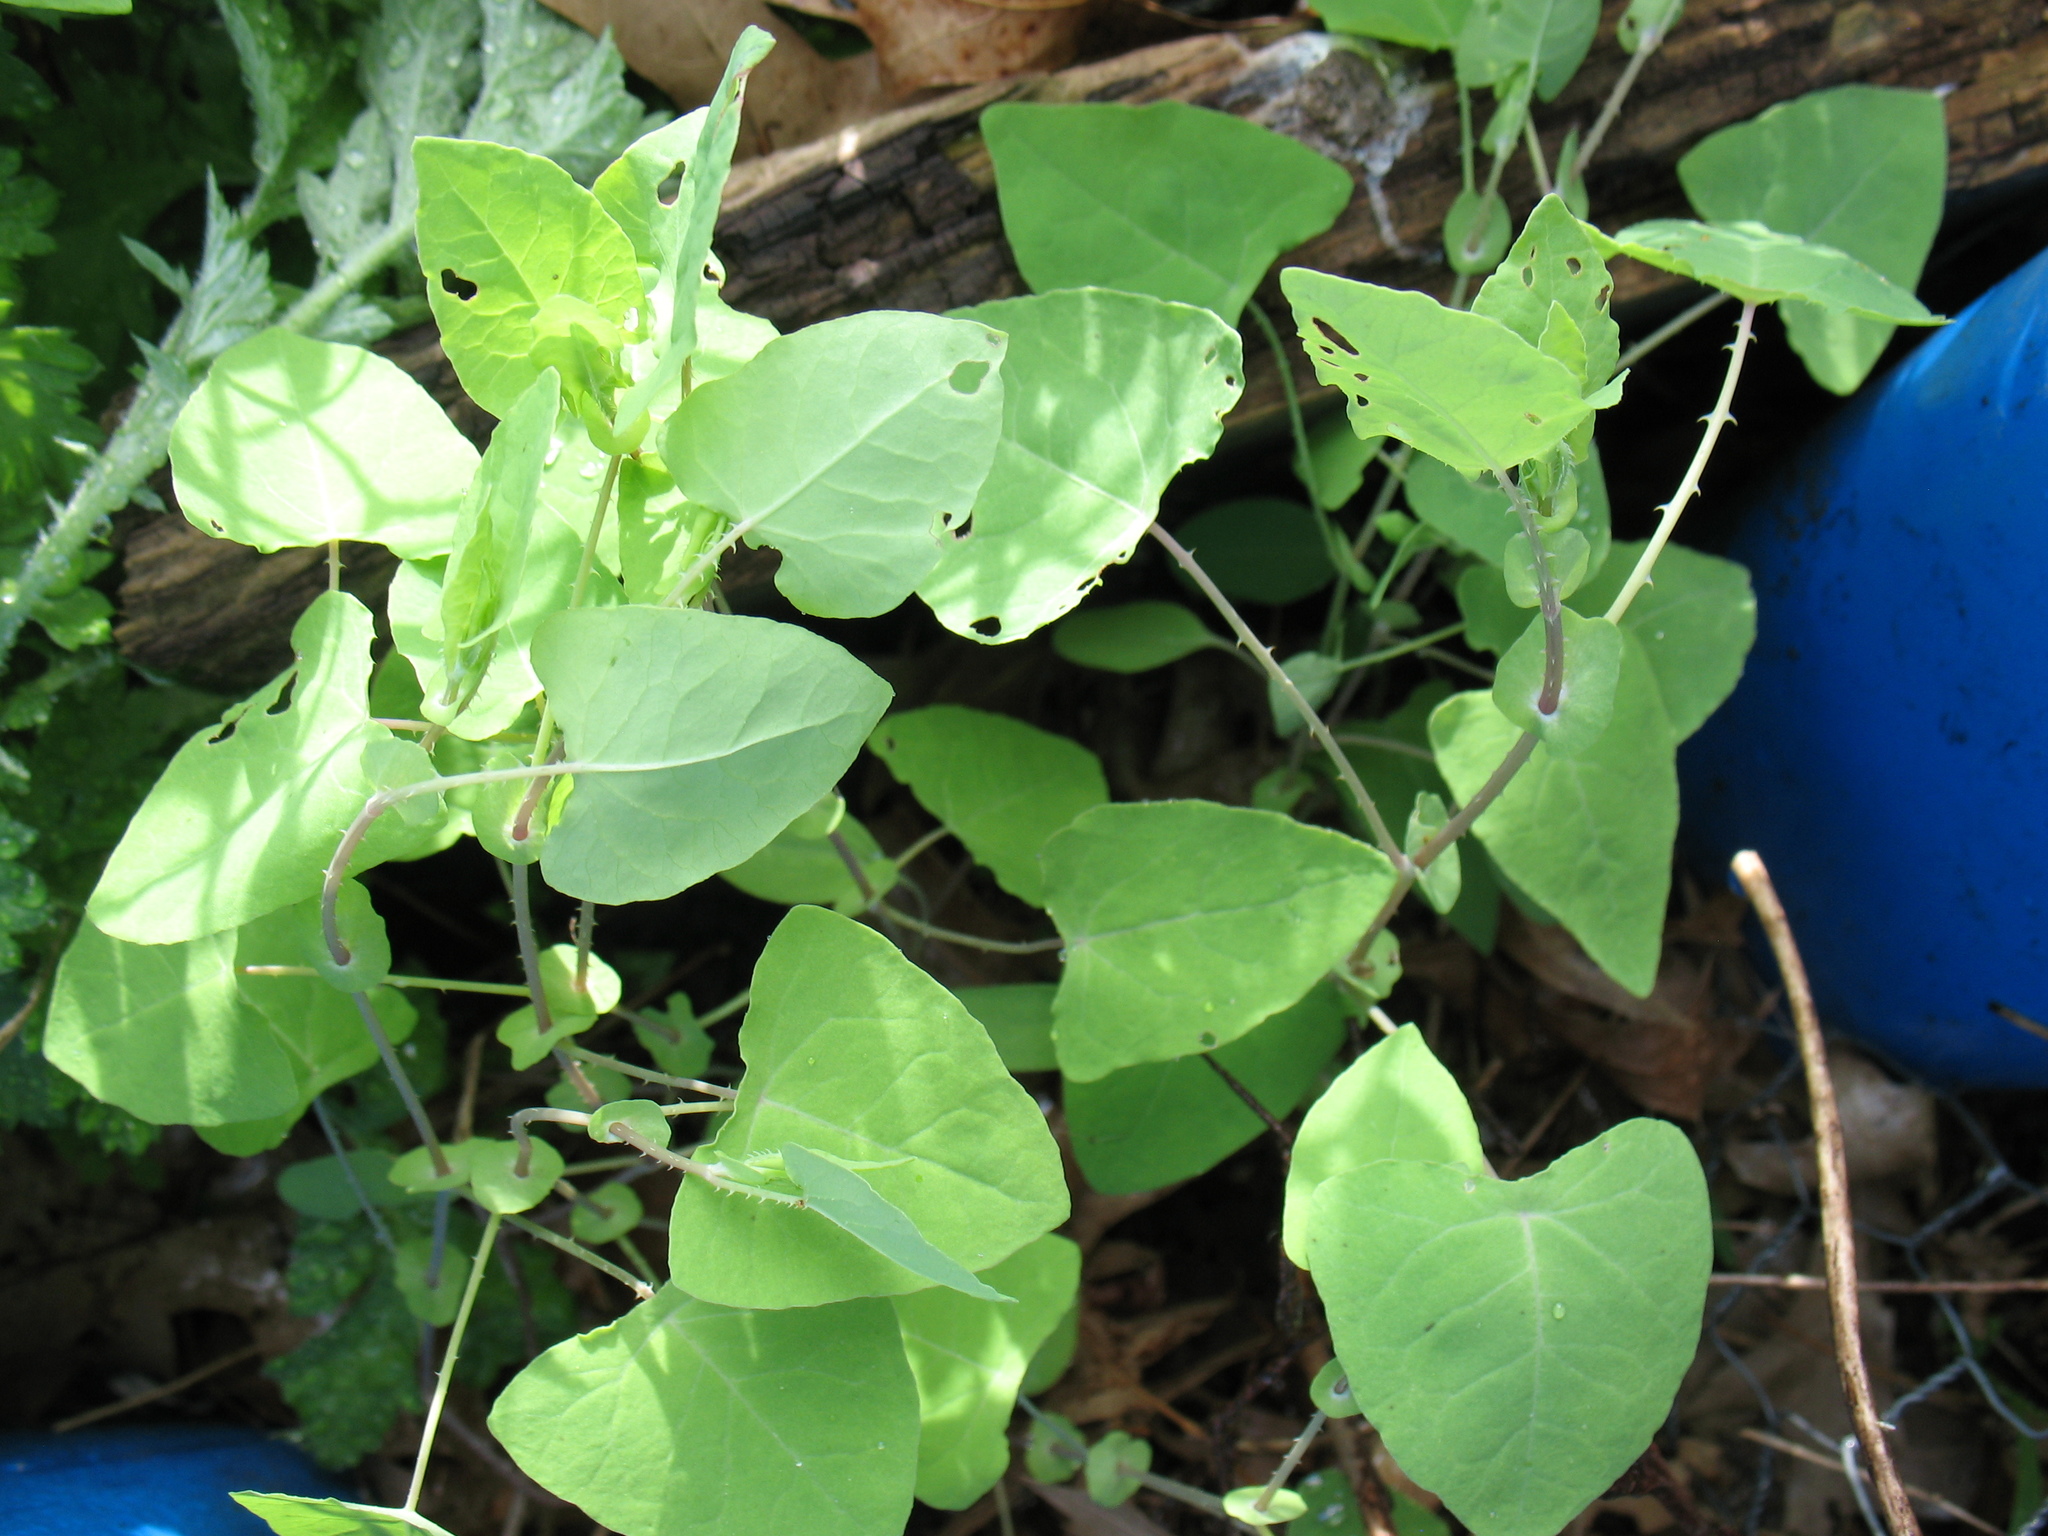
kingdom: Plantae
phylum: Tracheophyta
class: Magnoliopsida
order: Caryophyllales
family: Polygonaceae
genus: Persicaria
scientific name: Persicaria perfoliata
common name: Asiatic tearthumb
